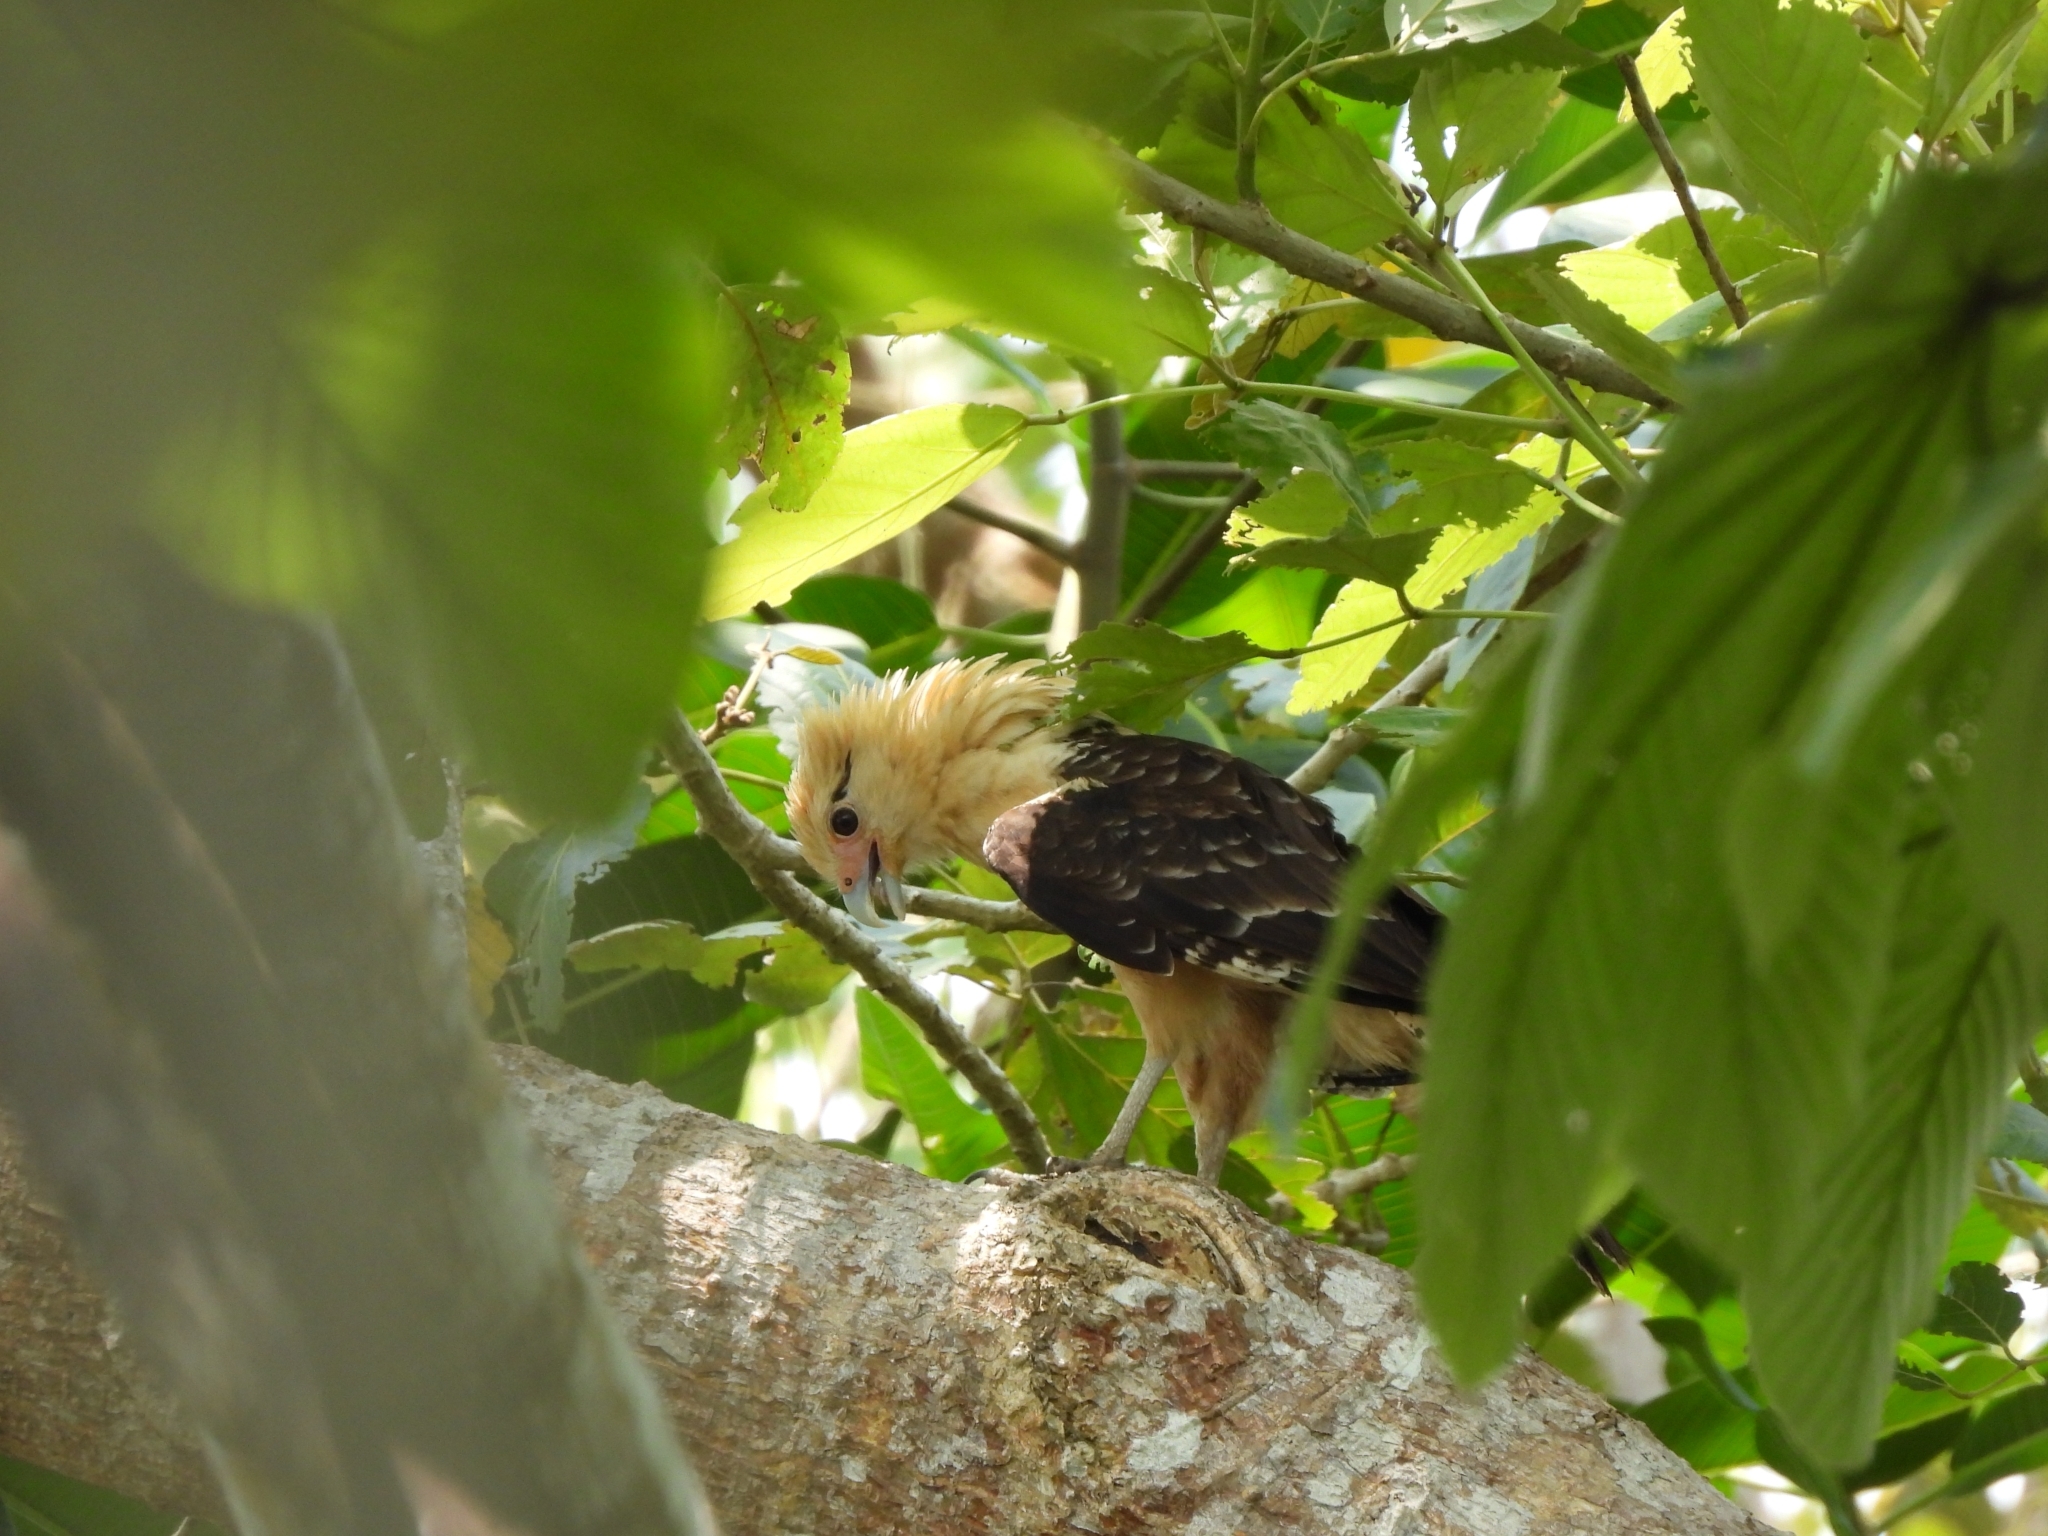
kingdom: Animalia
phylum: Chordata
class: Aves
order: Falconiformes
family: Falconidae
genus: Daptrius
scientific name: Daptrius
